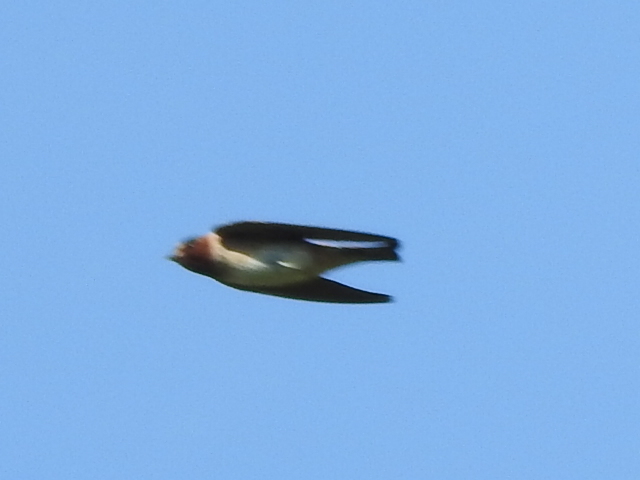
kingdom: Animalia
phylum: Chordata
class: Aves
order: Passeriformes
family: Hirundinidae
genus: Petrochelidon
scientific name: Petrochelidon pyrrhonota
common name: American cliff swallow
